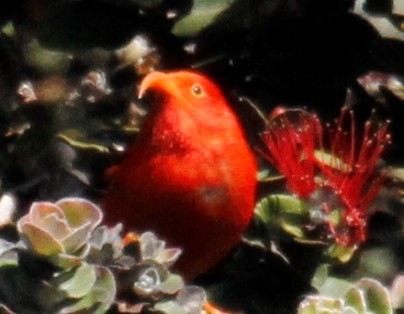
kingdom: Animalia
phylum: Chordata
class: Aves
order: Passeriformes
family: Fringillidae
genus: Vestiaria
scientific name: Vestiaria coccinea
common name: Iiwi
